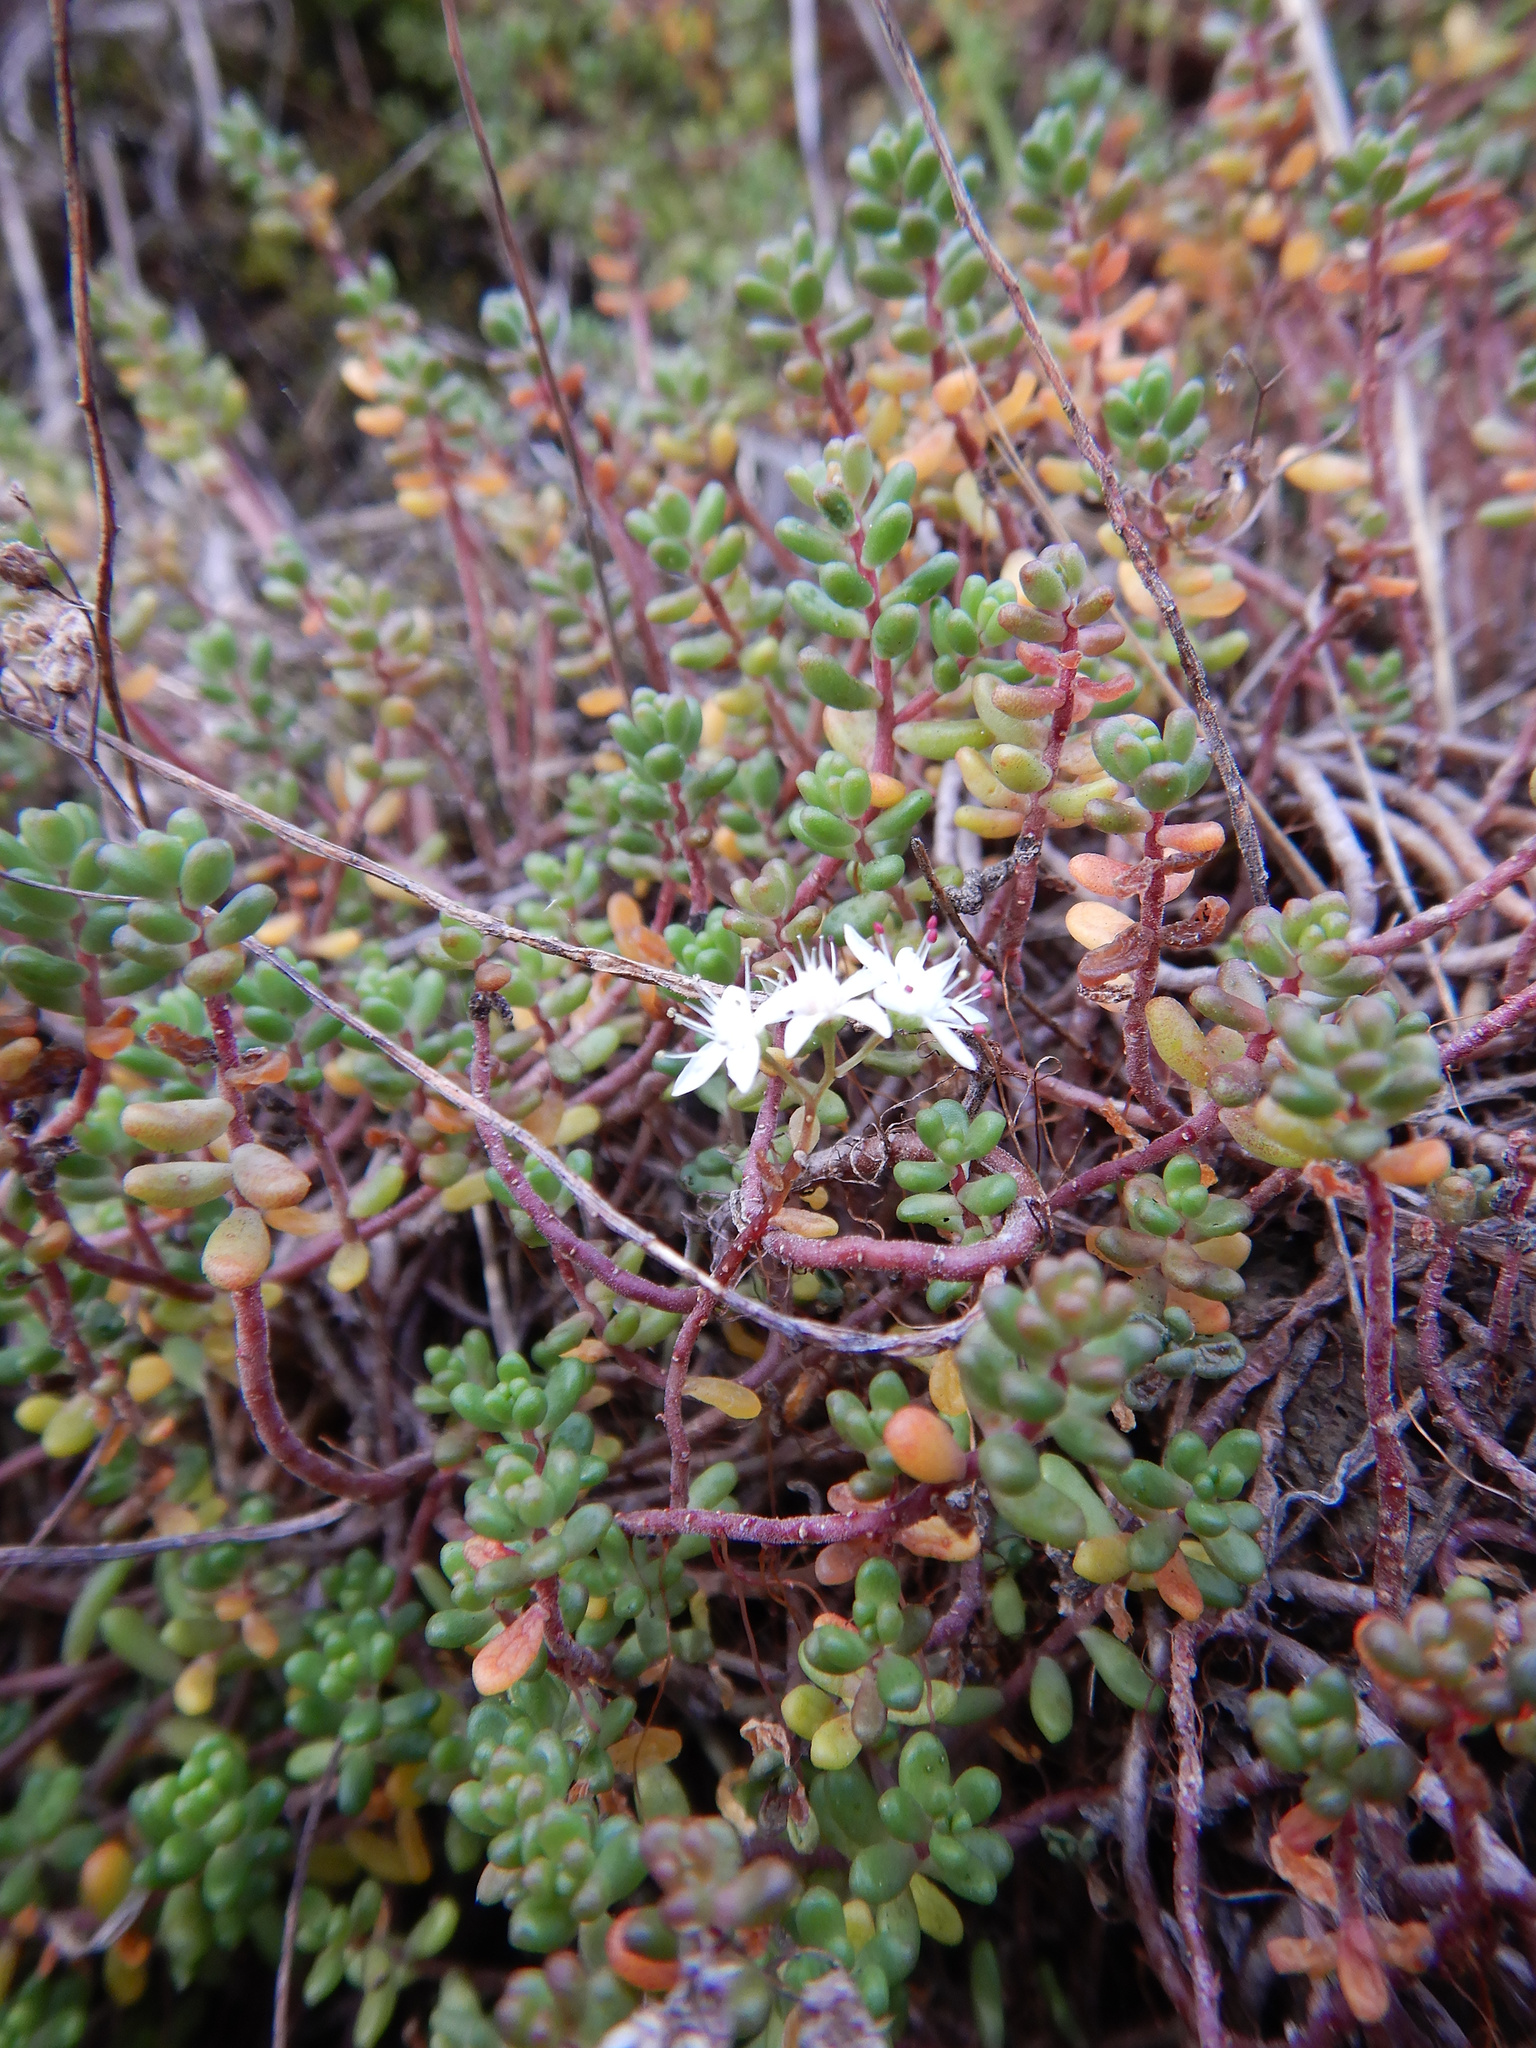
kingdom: Plantae
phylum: Tracheophyta
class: Magnoliopsida
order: Saxifragales
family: Crassulaceae
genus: Sedum
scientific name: Sedum album
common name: White stonecrop
